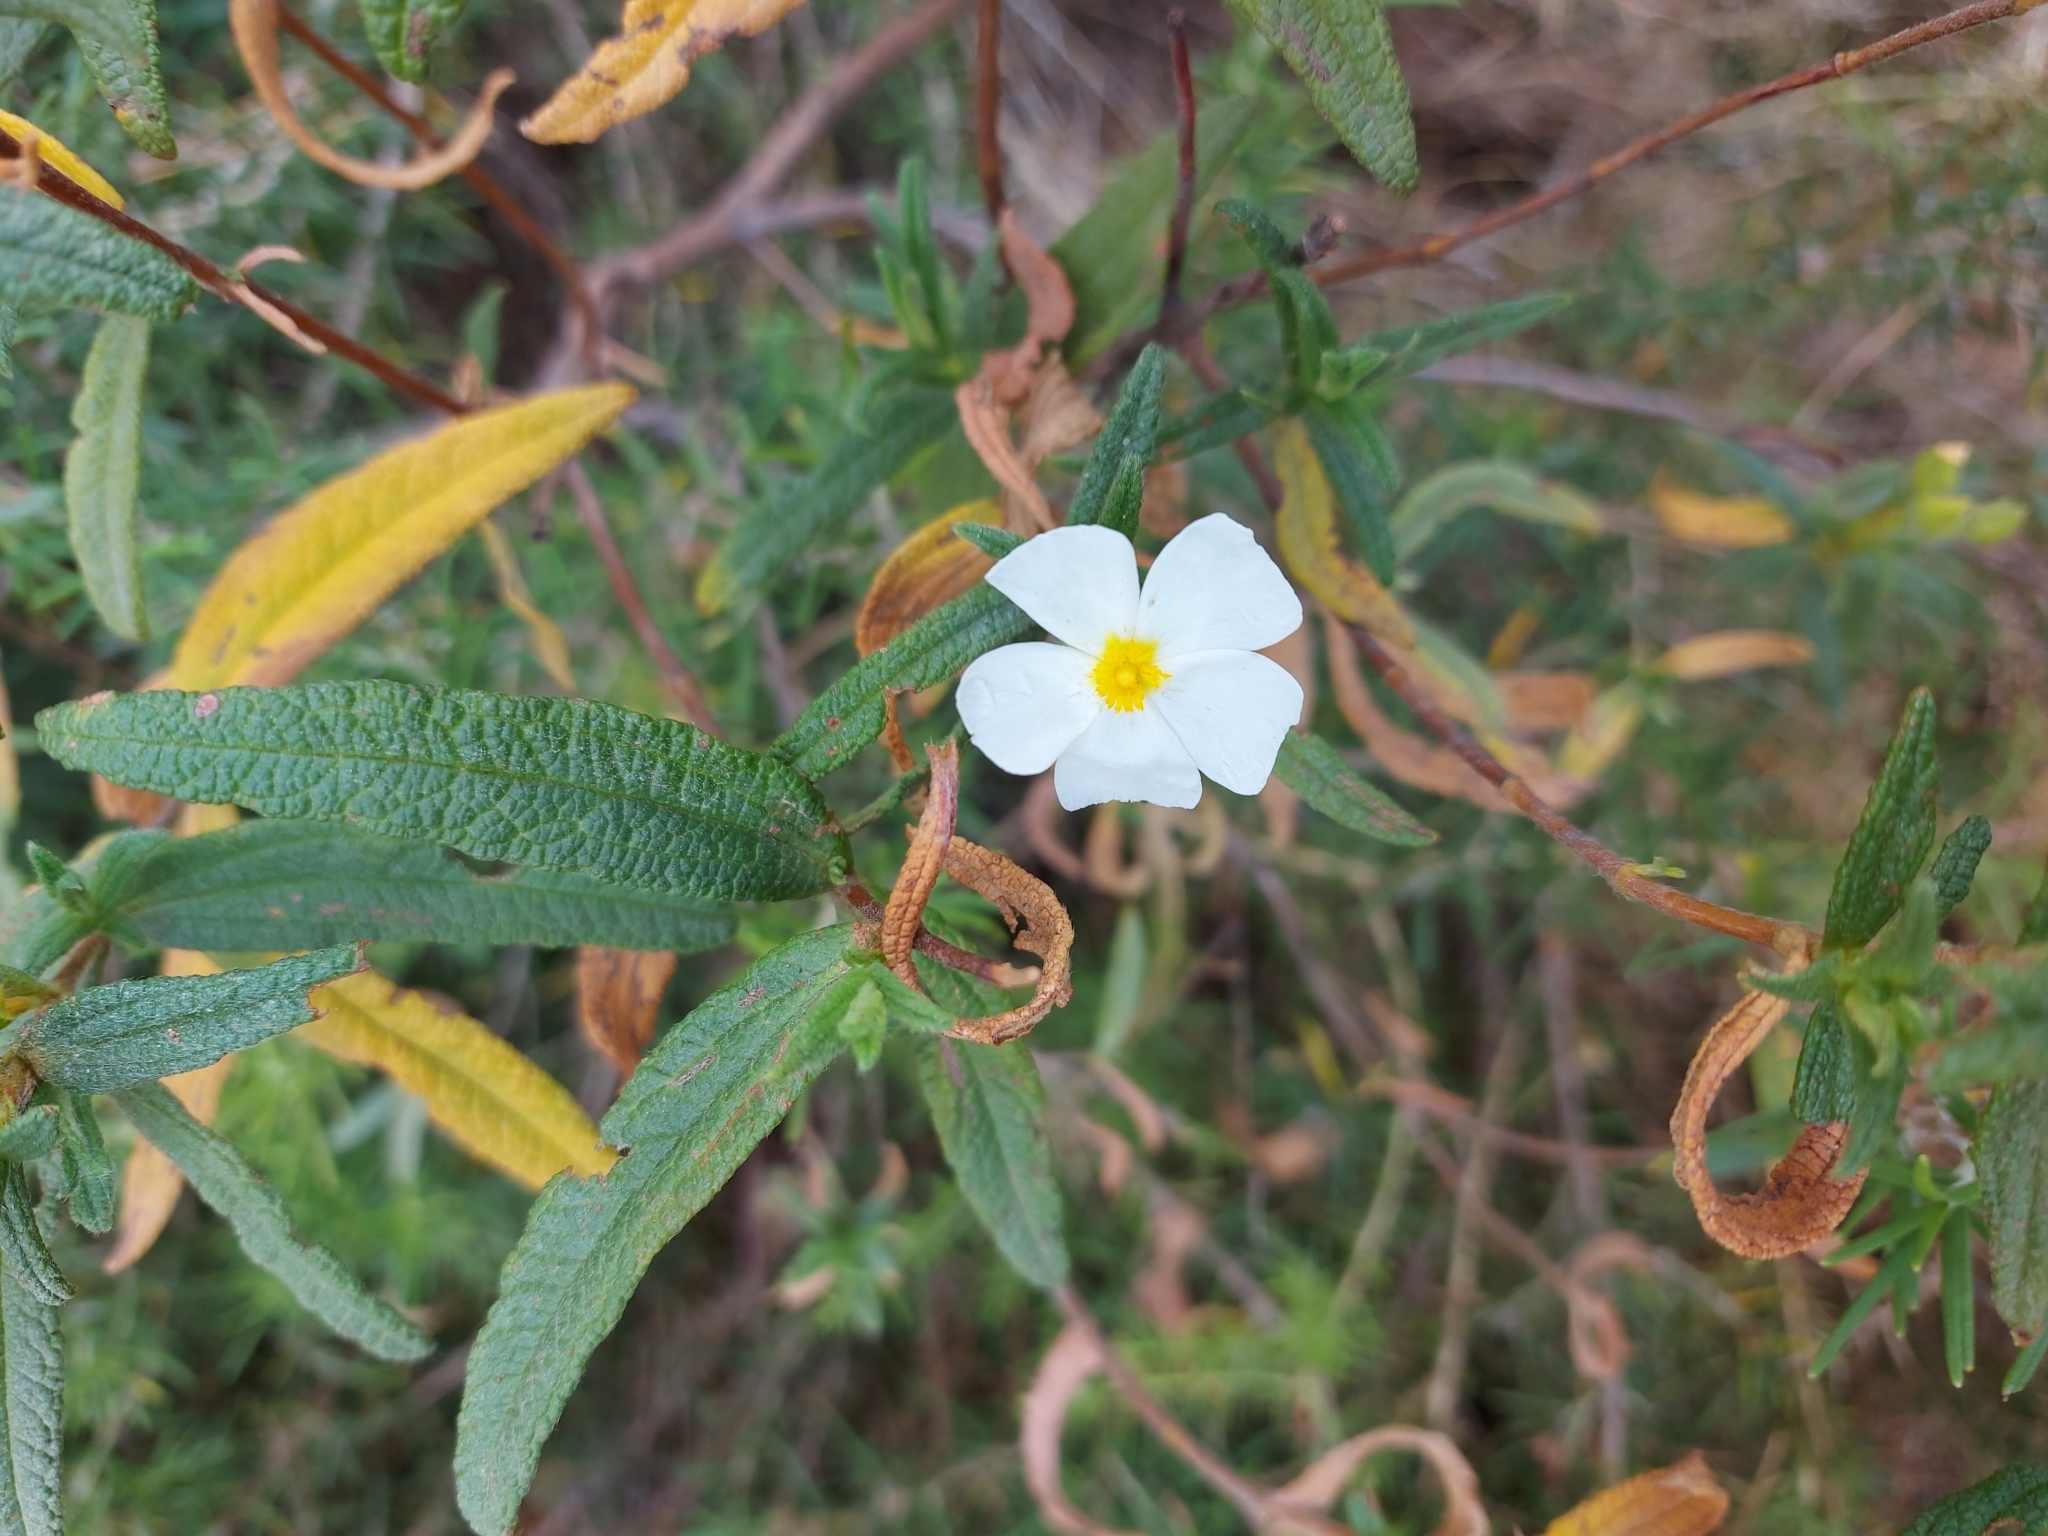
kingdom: Plantae
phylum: Tracheophyta
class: Magnoliopsida
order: Malvales
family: Cistaceae
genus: Cistus
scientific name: Cistus monspeliensis
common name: Montpelier cistus
